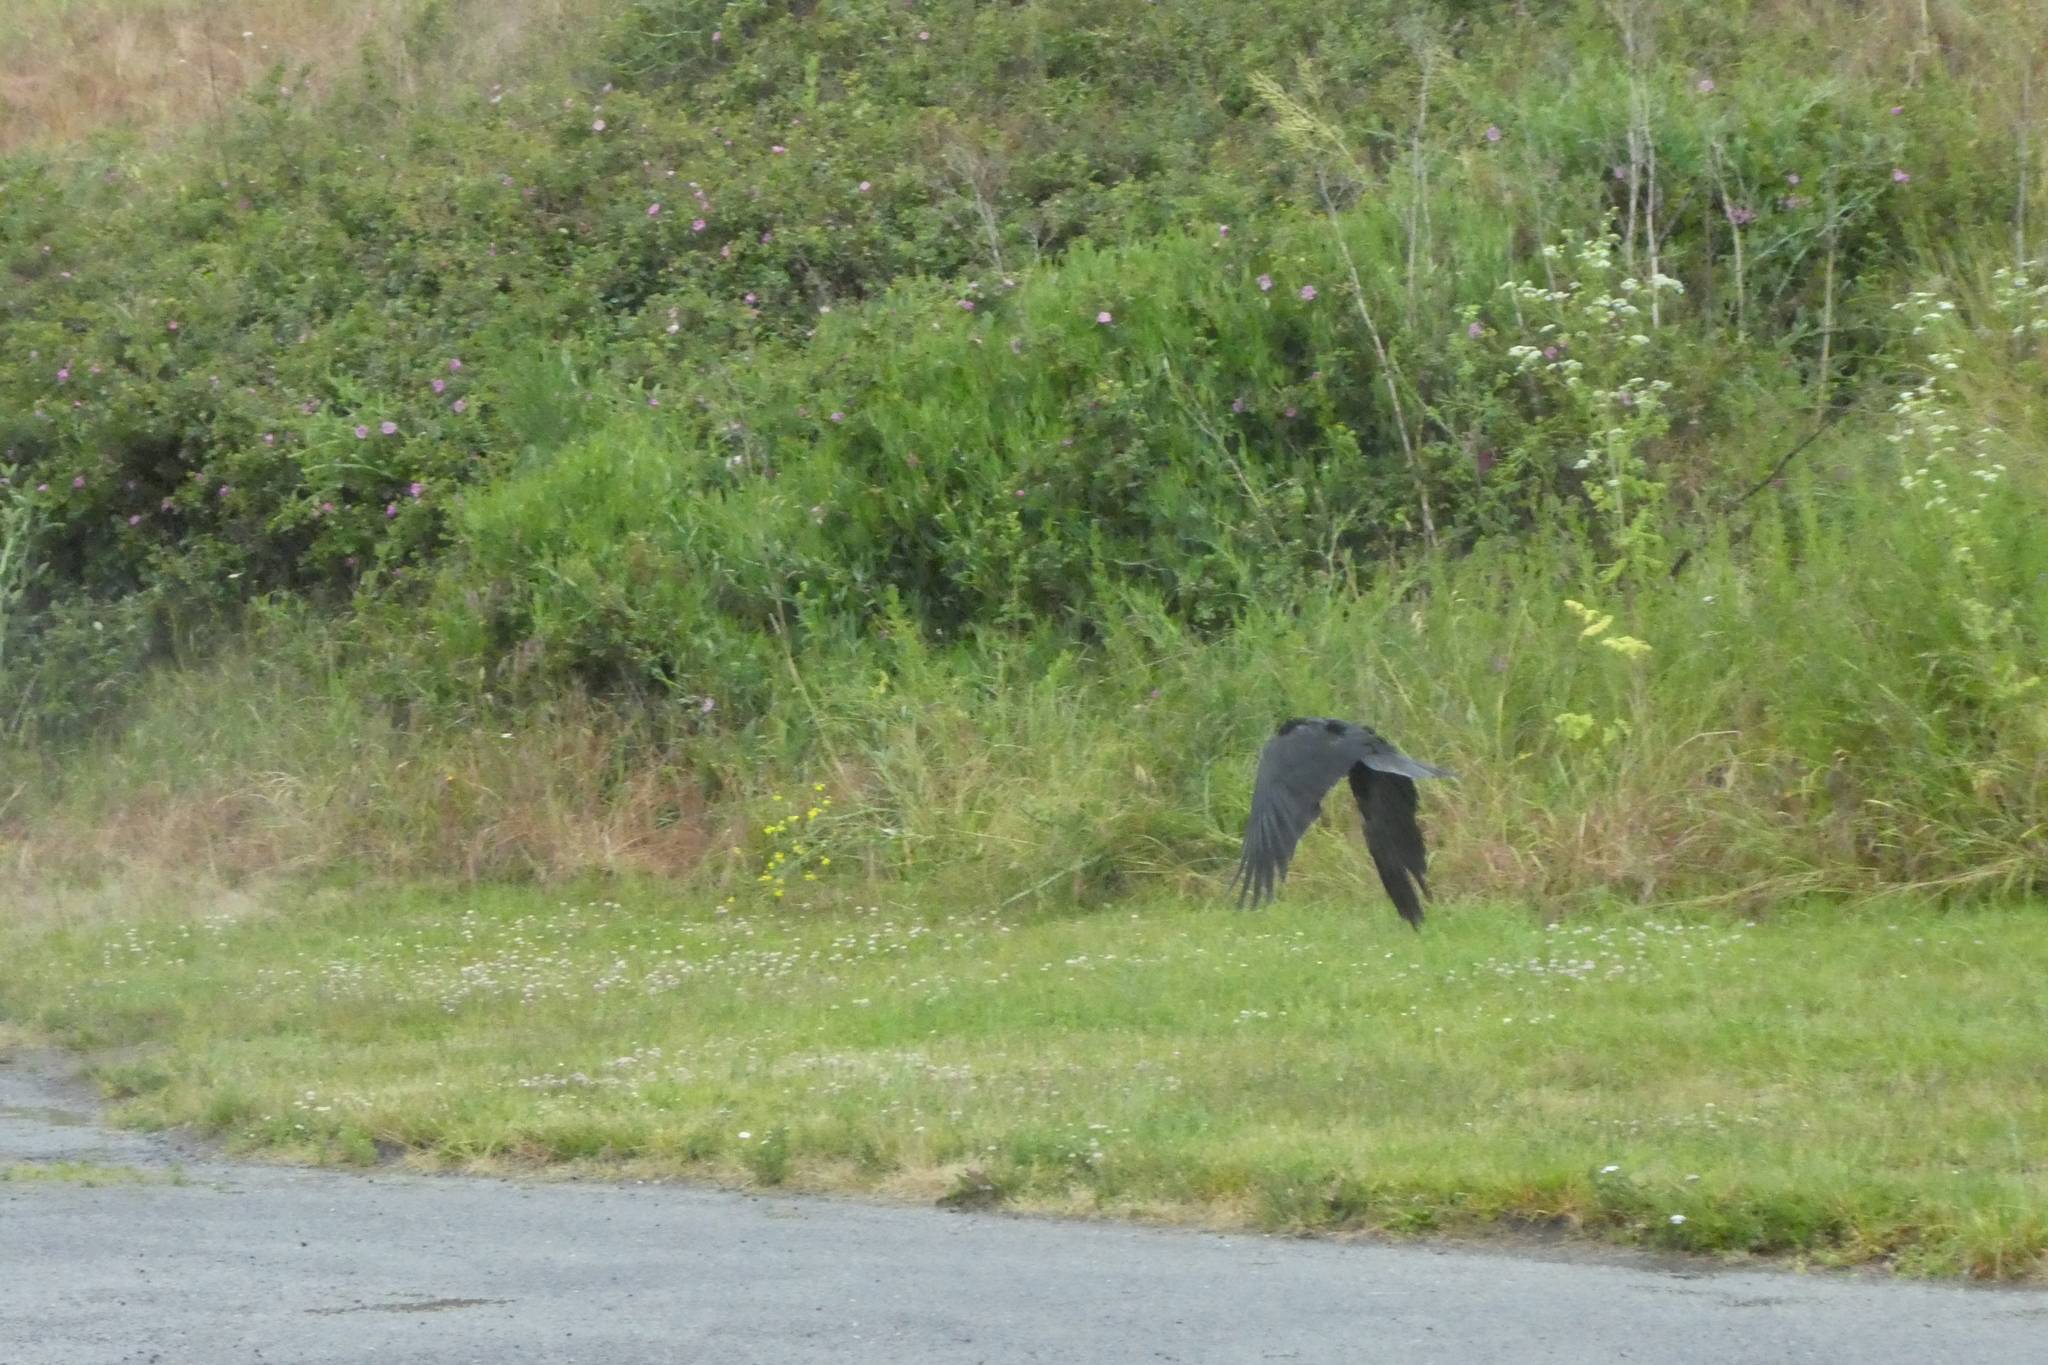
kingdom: Animalia
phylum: Chordata
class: Aves
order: Passeriformes
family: Corvidae
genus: Corvus
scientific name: Corvus brachyrhynchos
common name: American crow
